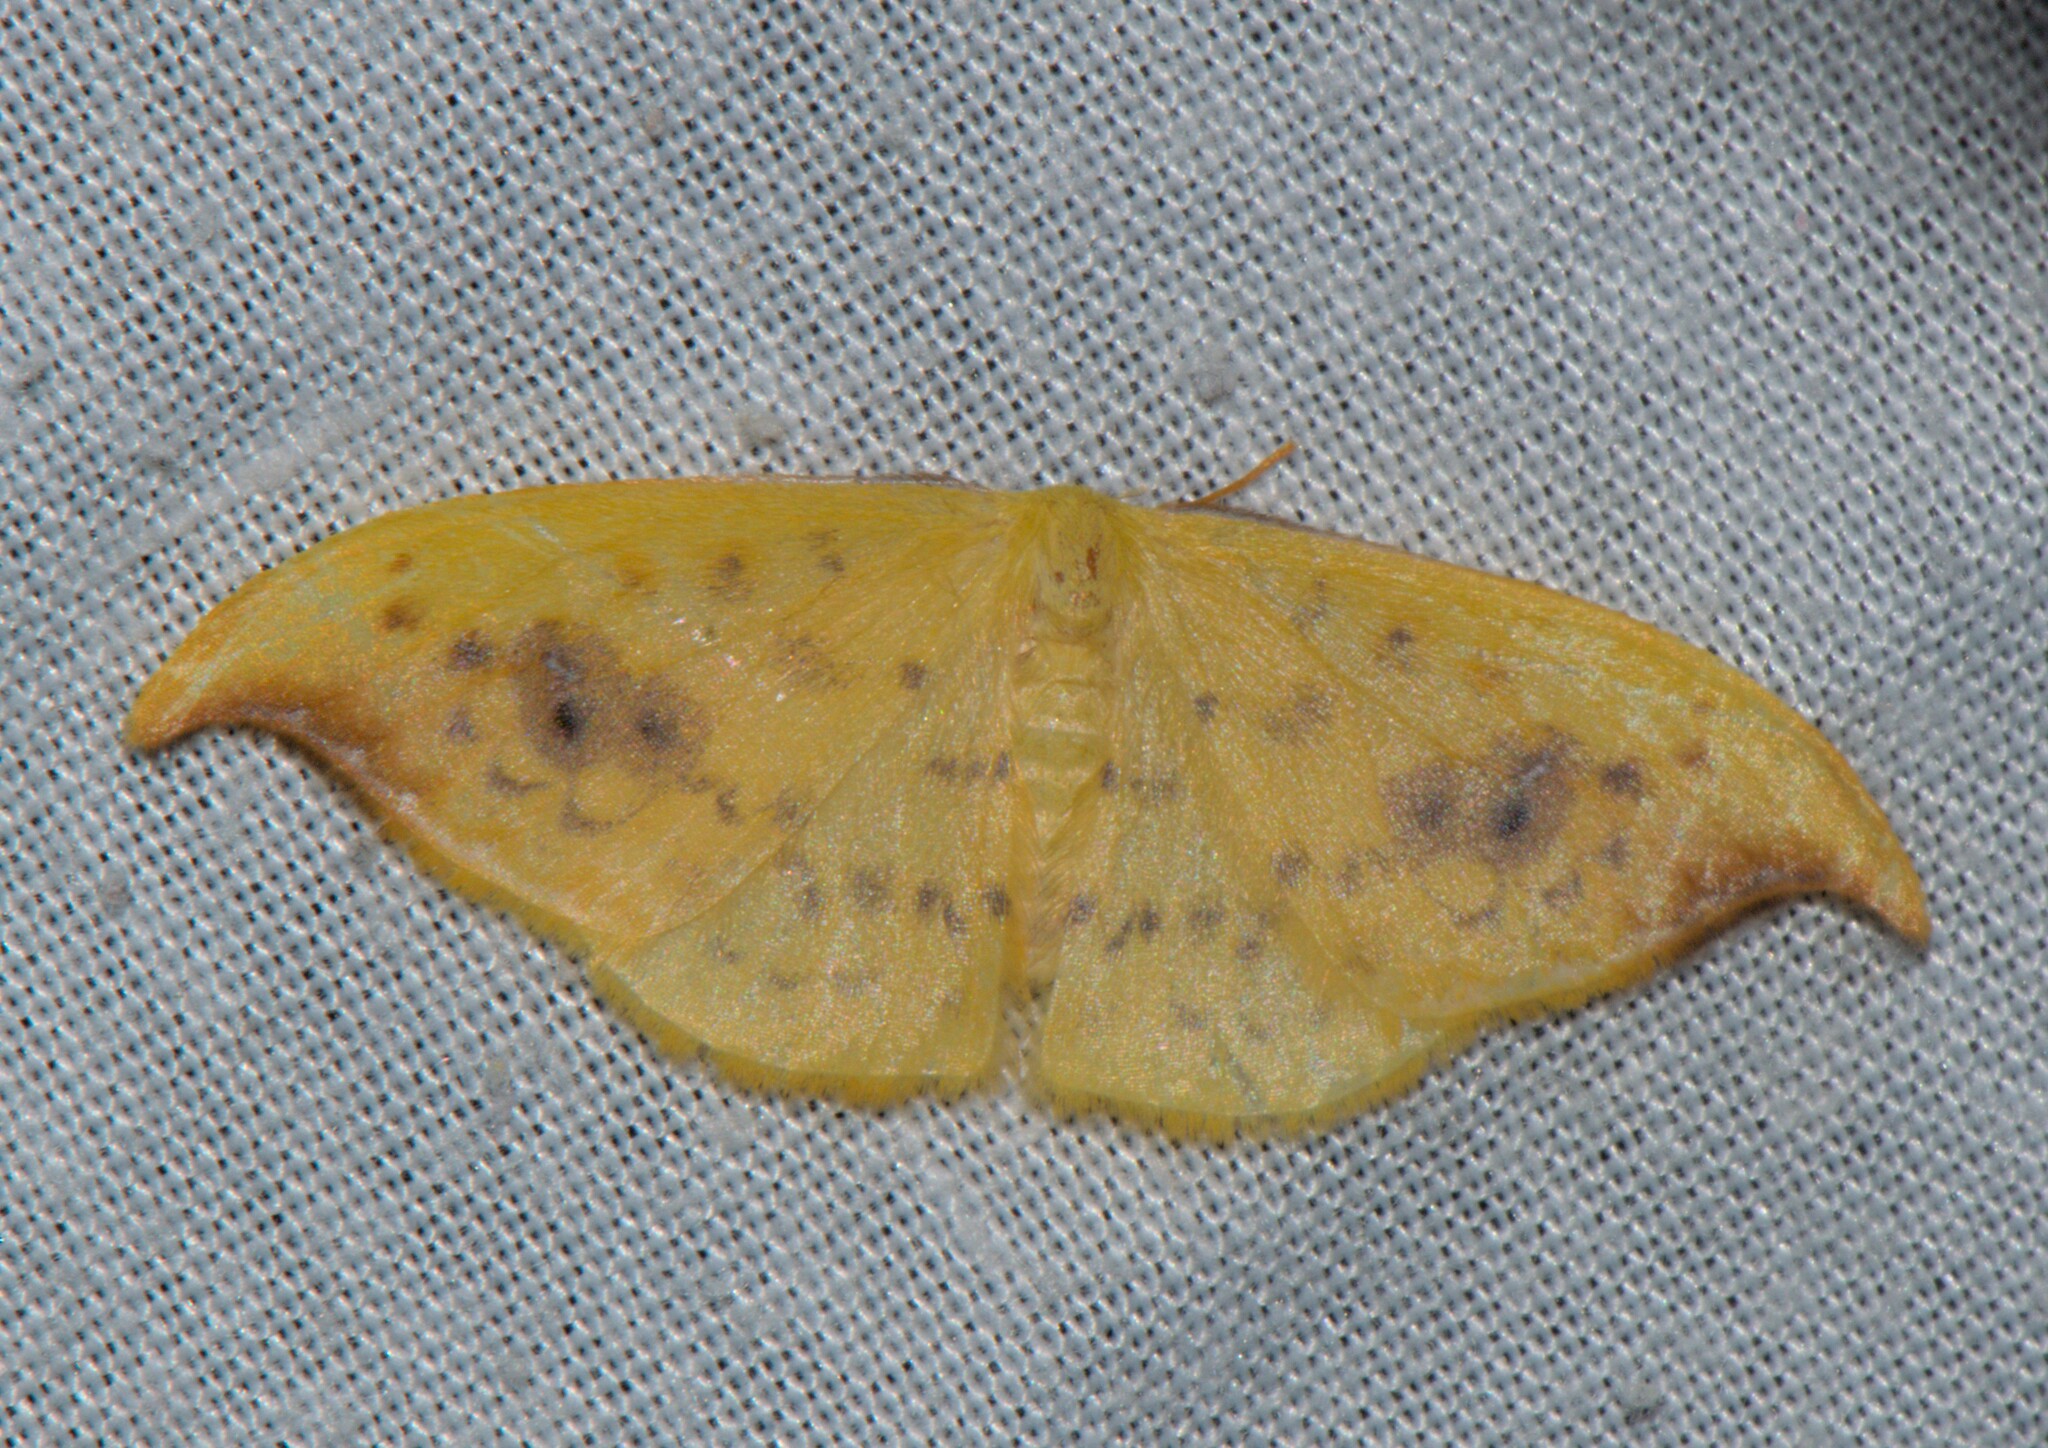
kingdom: Animalia
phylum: Arthropoda
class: Insecta
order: Lepidoptera
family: Drepanidae
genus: Tridrepana
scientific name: Tridrepana sadana
